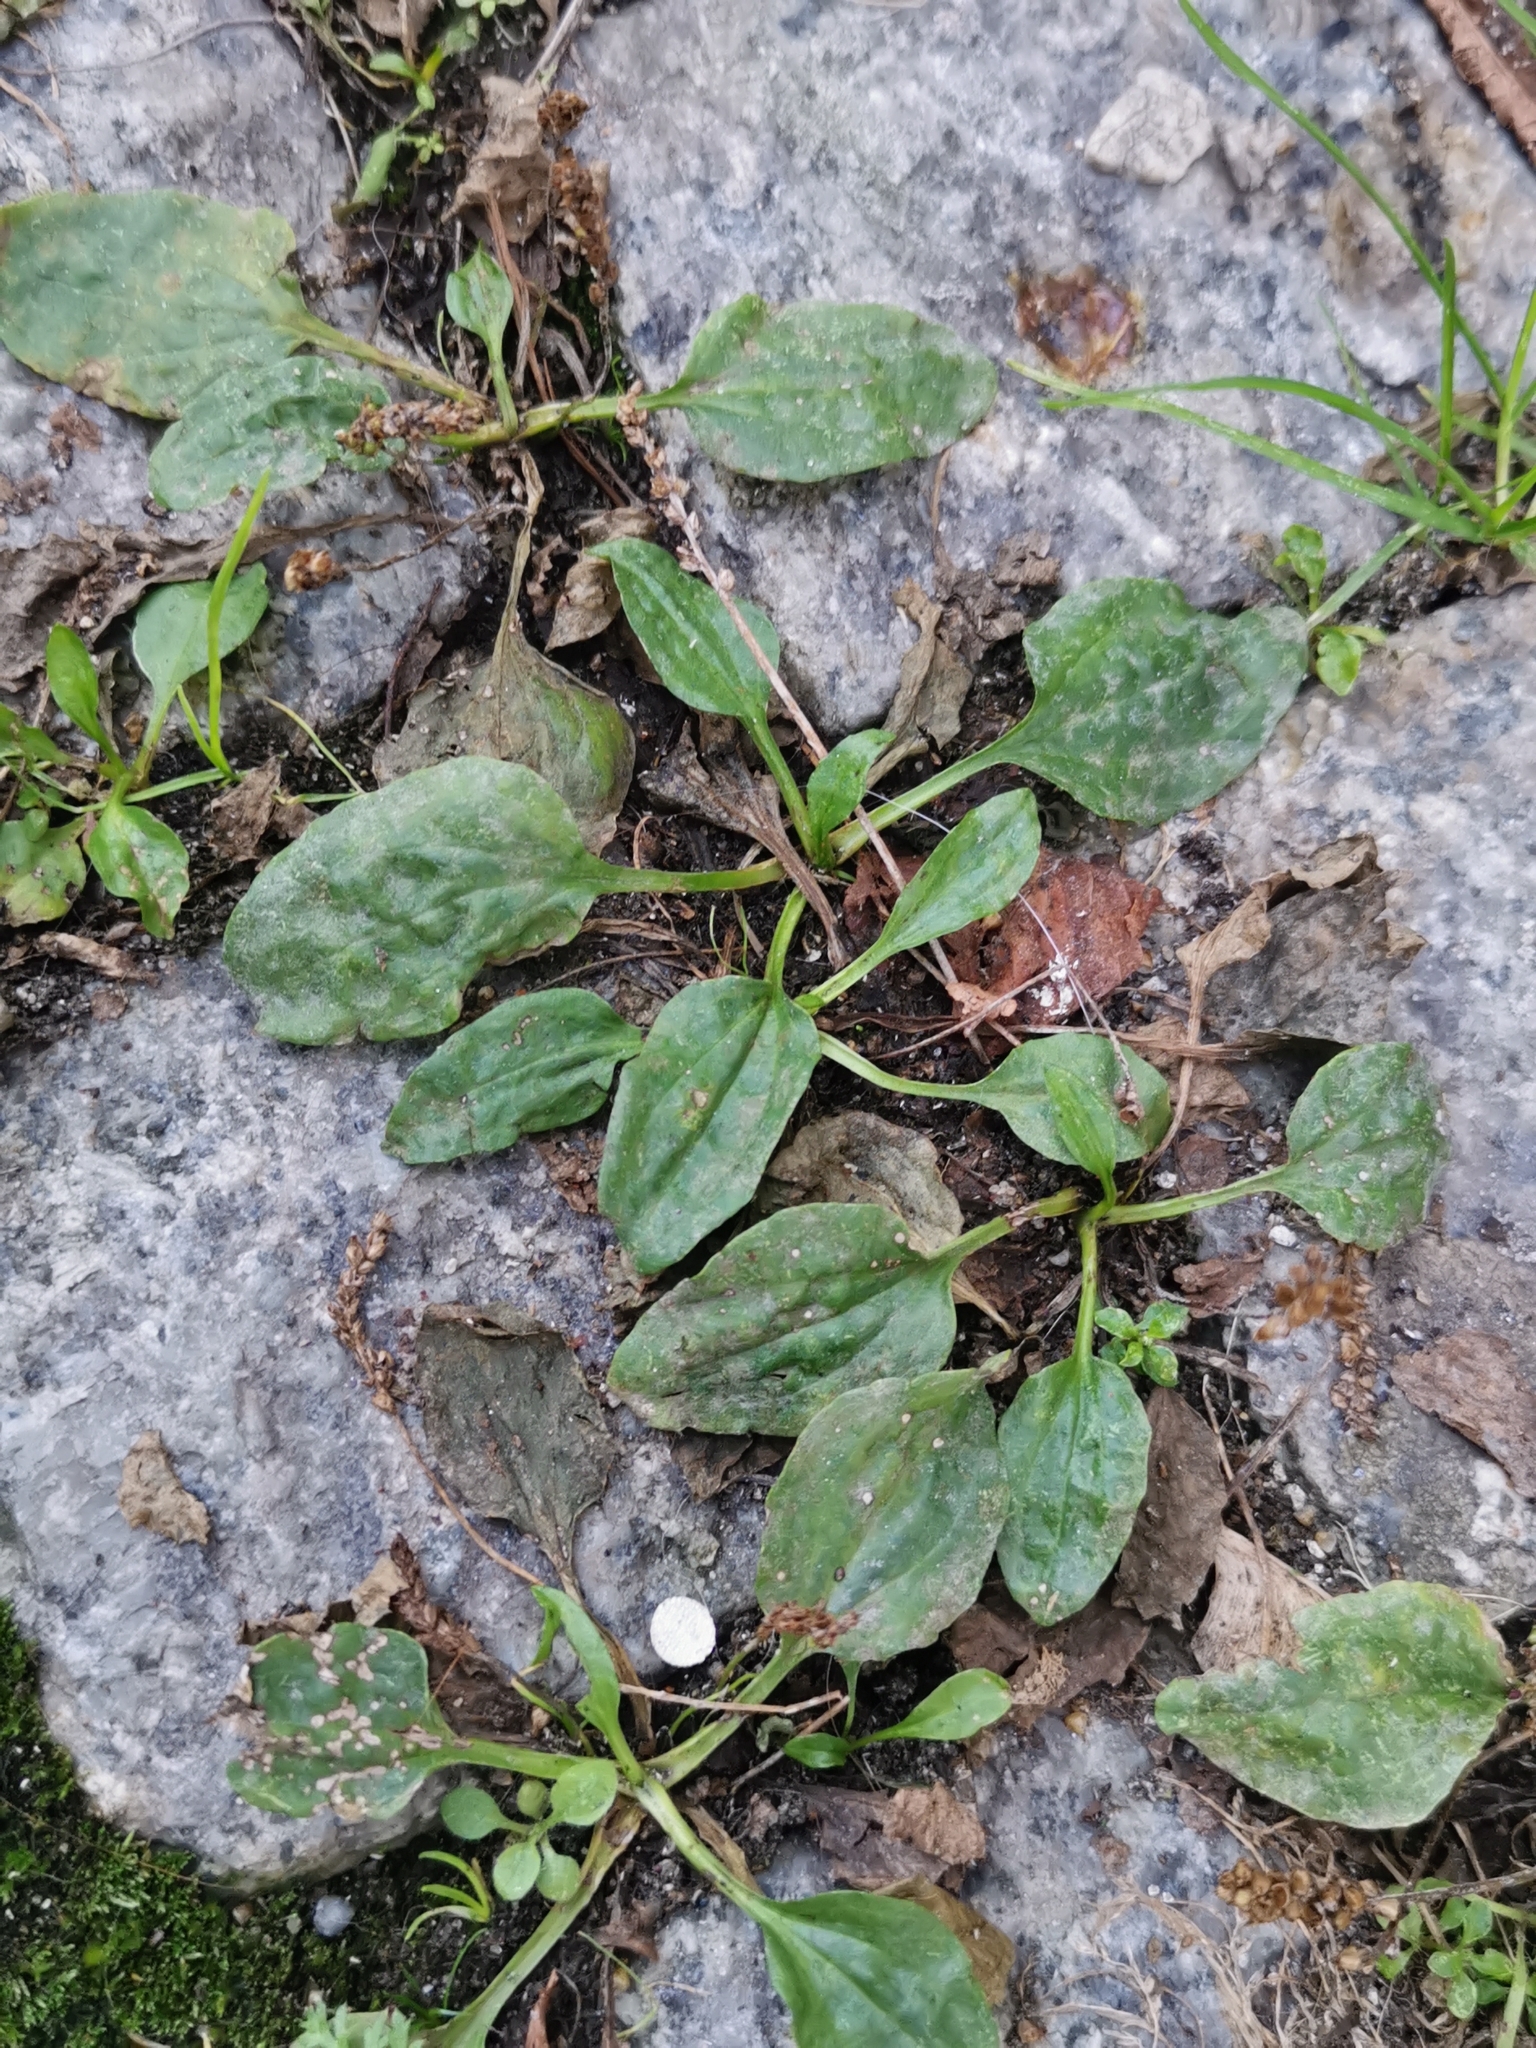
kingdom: Plantae
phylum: Tracheophyta
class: Magnoliopsida
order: Lamiales
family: Plantaginaceae
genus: Plantago
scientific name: Plantago major
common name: Common plantain
